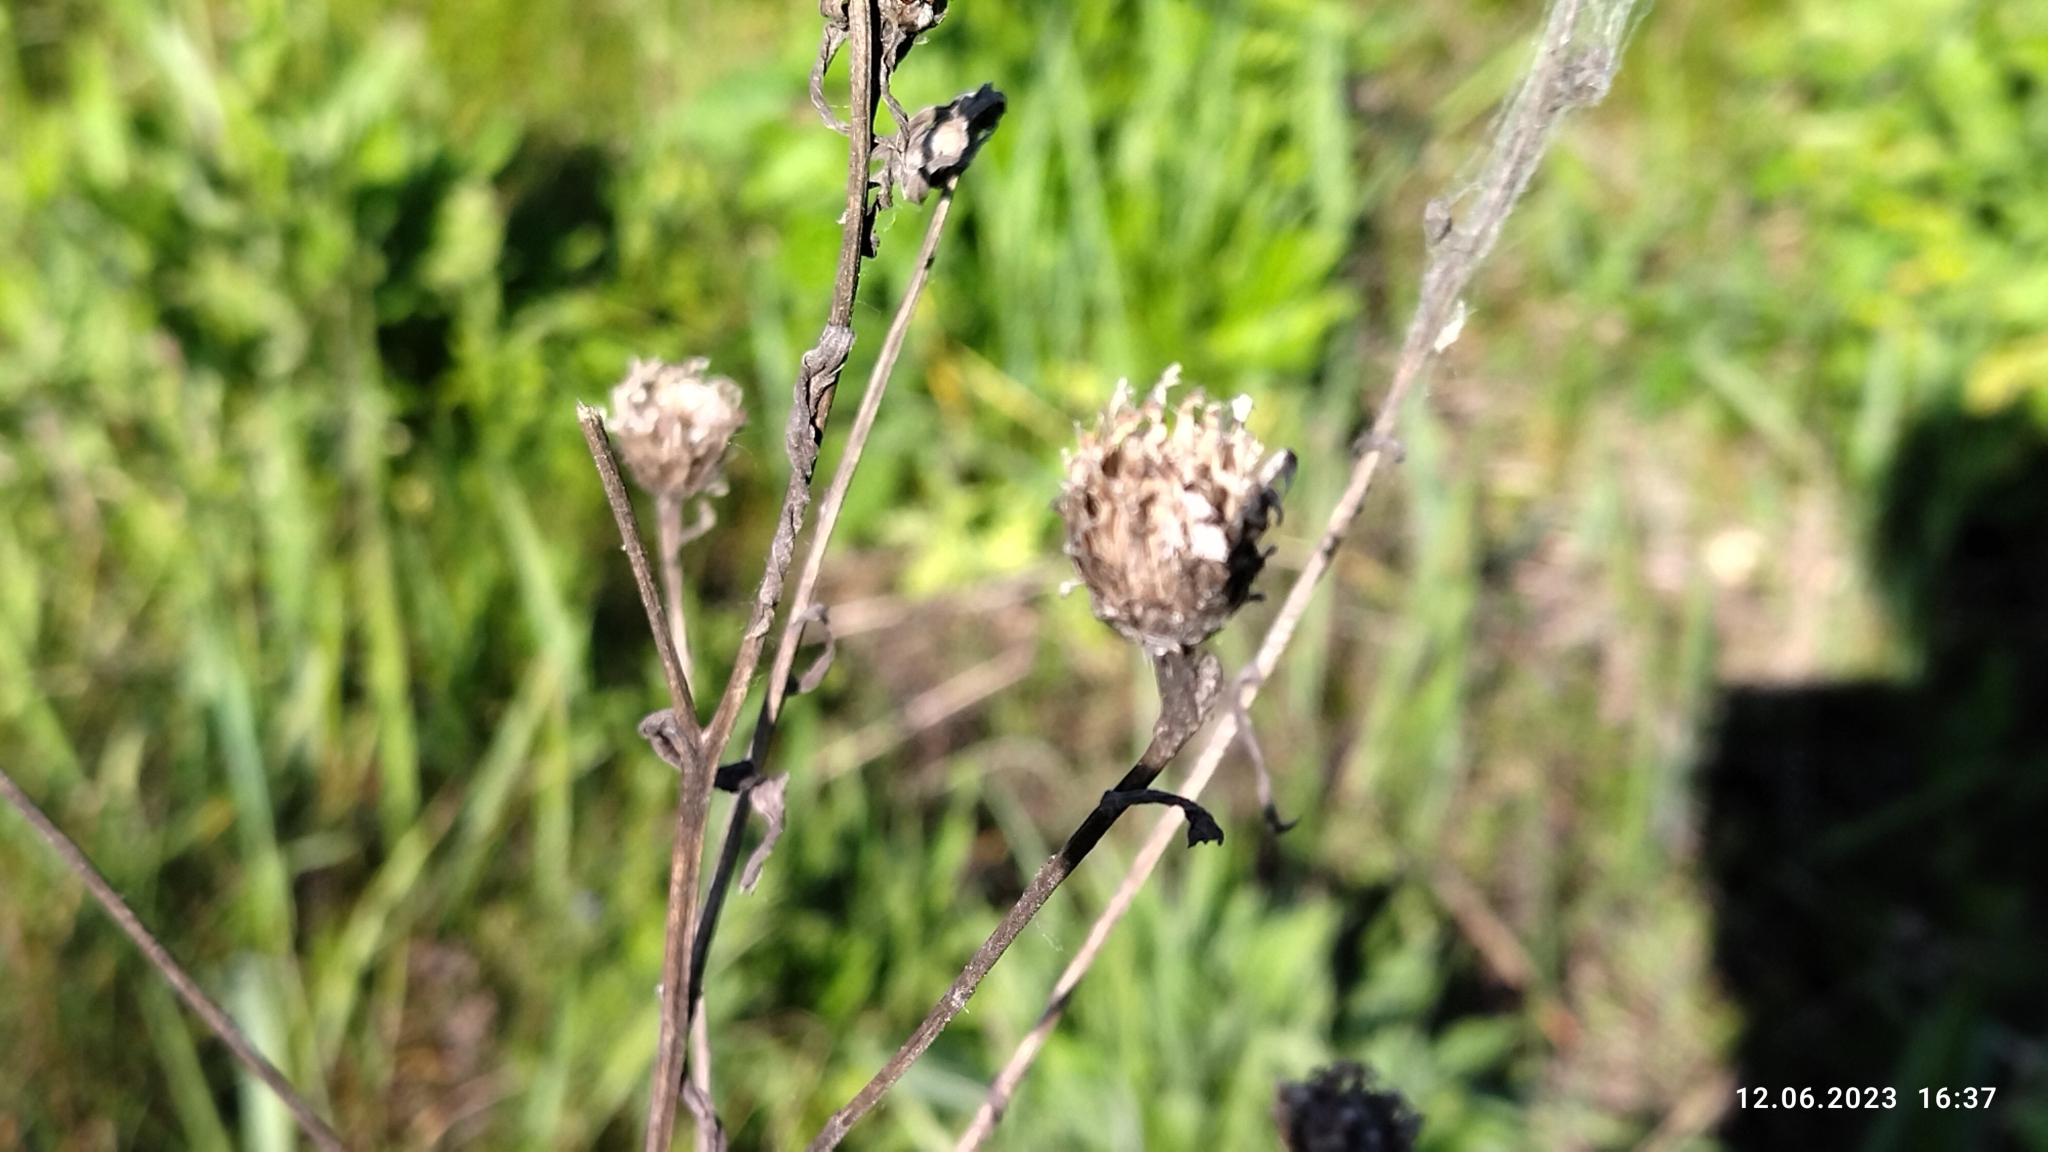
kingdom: Plantae
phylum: Tracheophyta
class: Magnoliopsida
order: Asterales
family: Asteraceae
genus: Centaurea
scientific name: Centaurea jacea
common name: Brown knapweed
